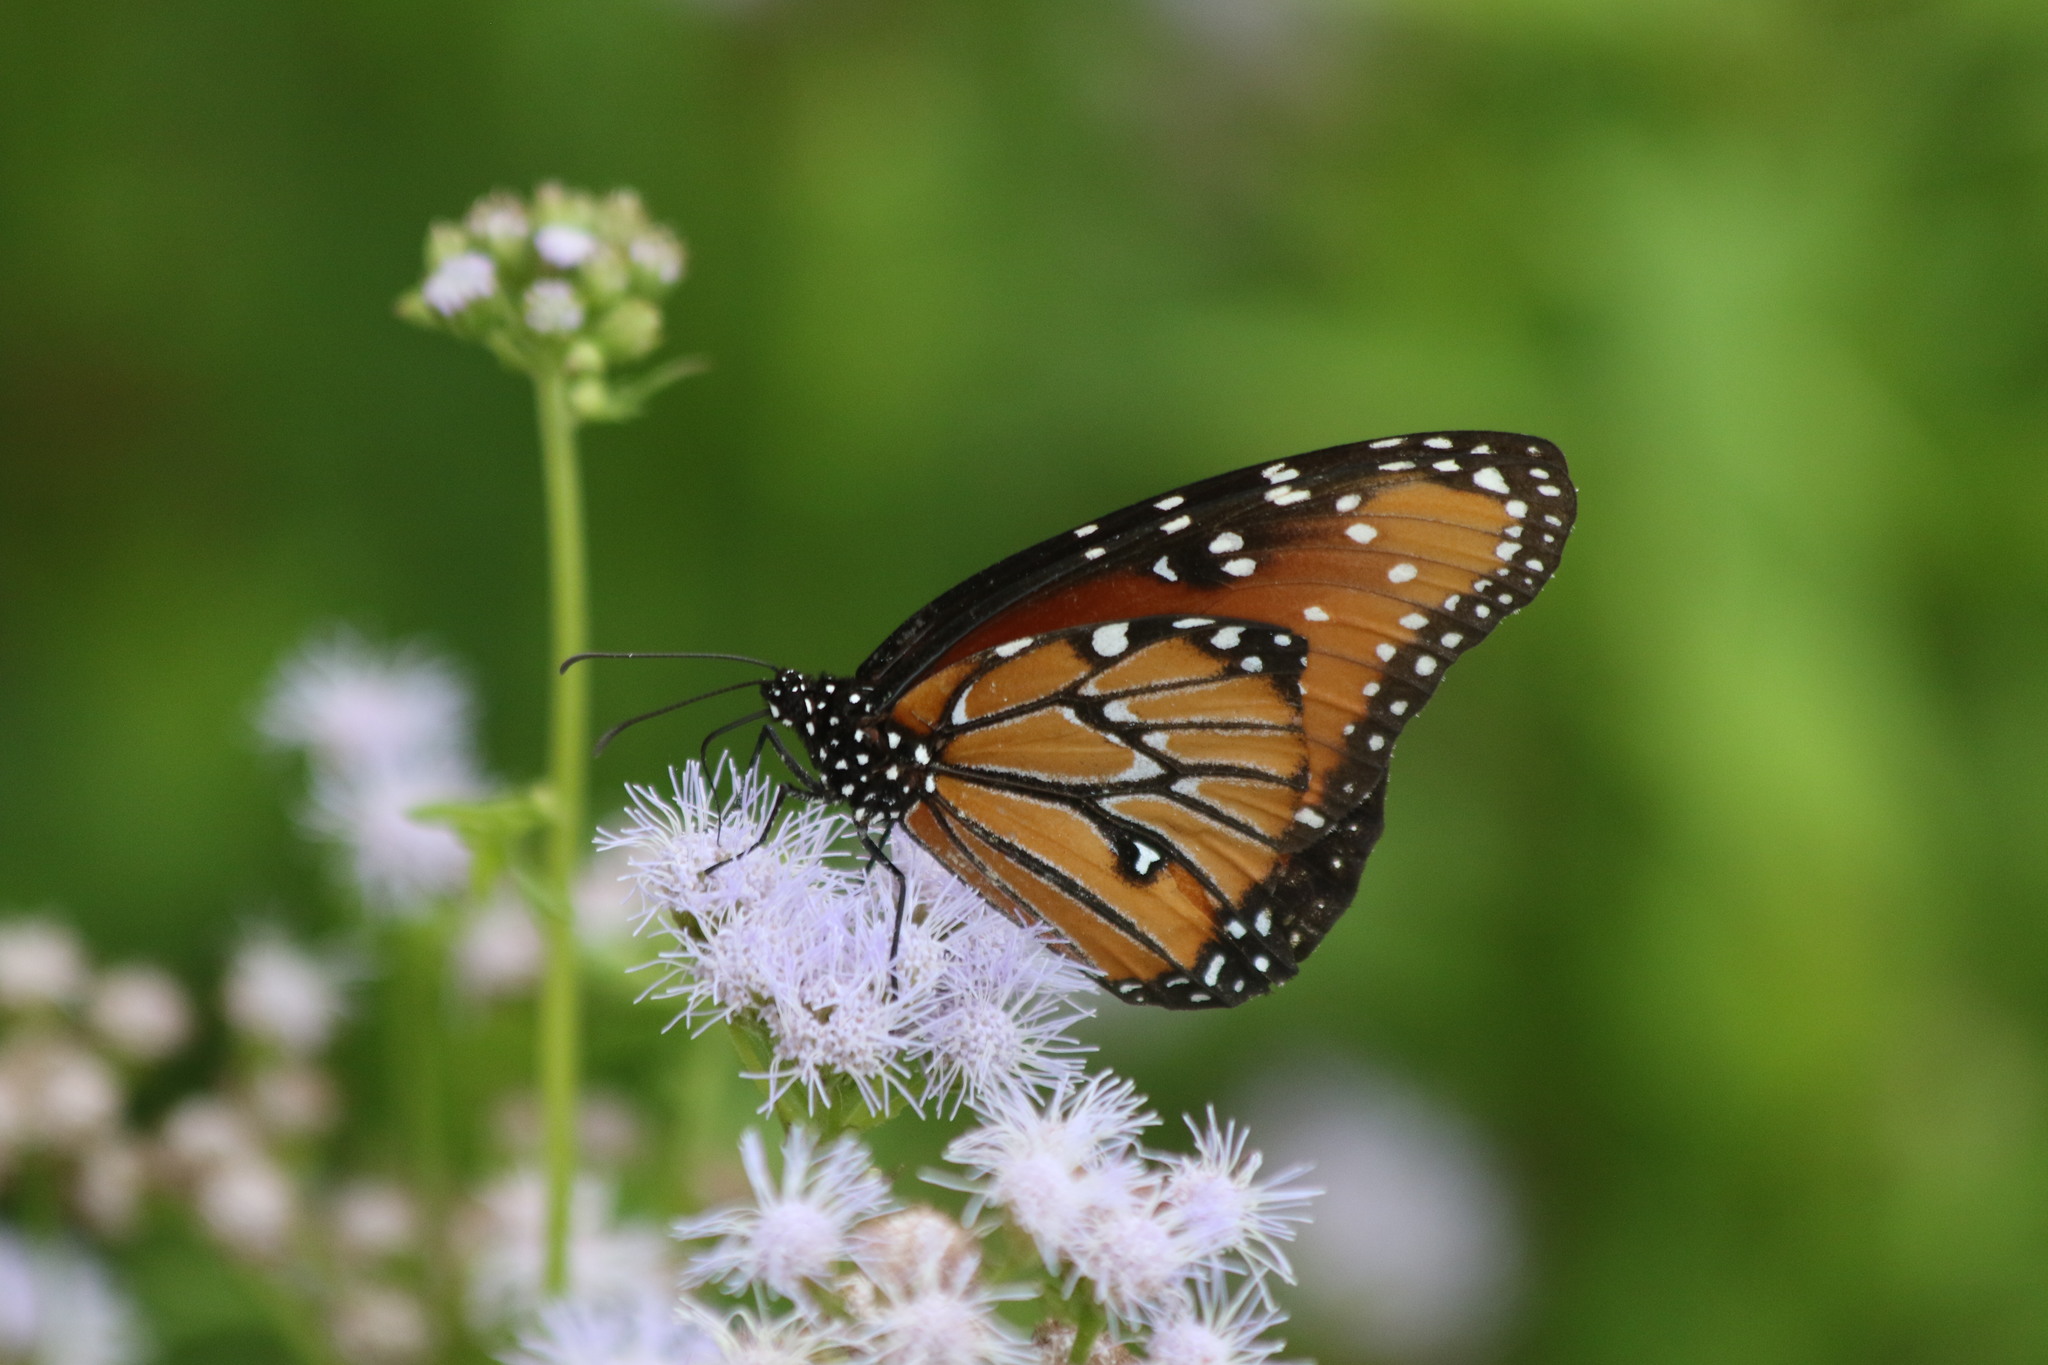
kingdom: Animalia
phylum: Arthropoda
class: Insecta
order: Lepidoptera
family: Nymphalidae
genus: Danaus
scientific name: Danaus gilippus
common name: Queen
